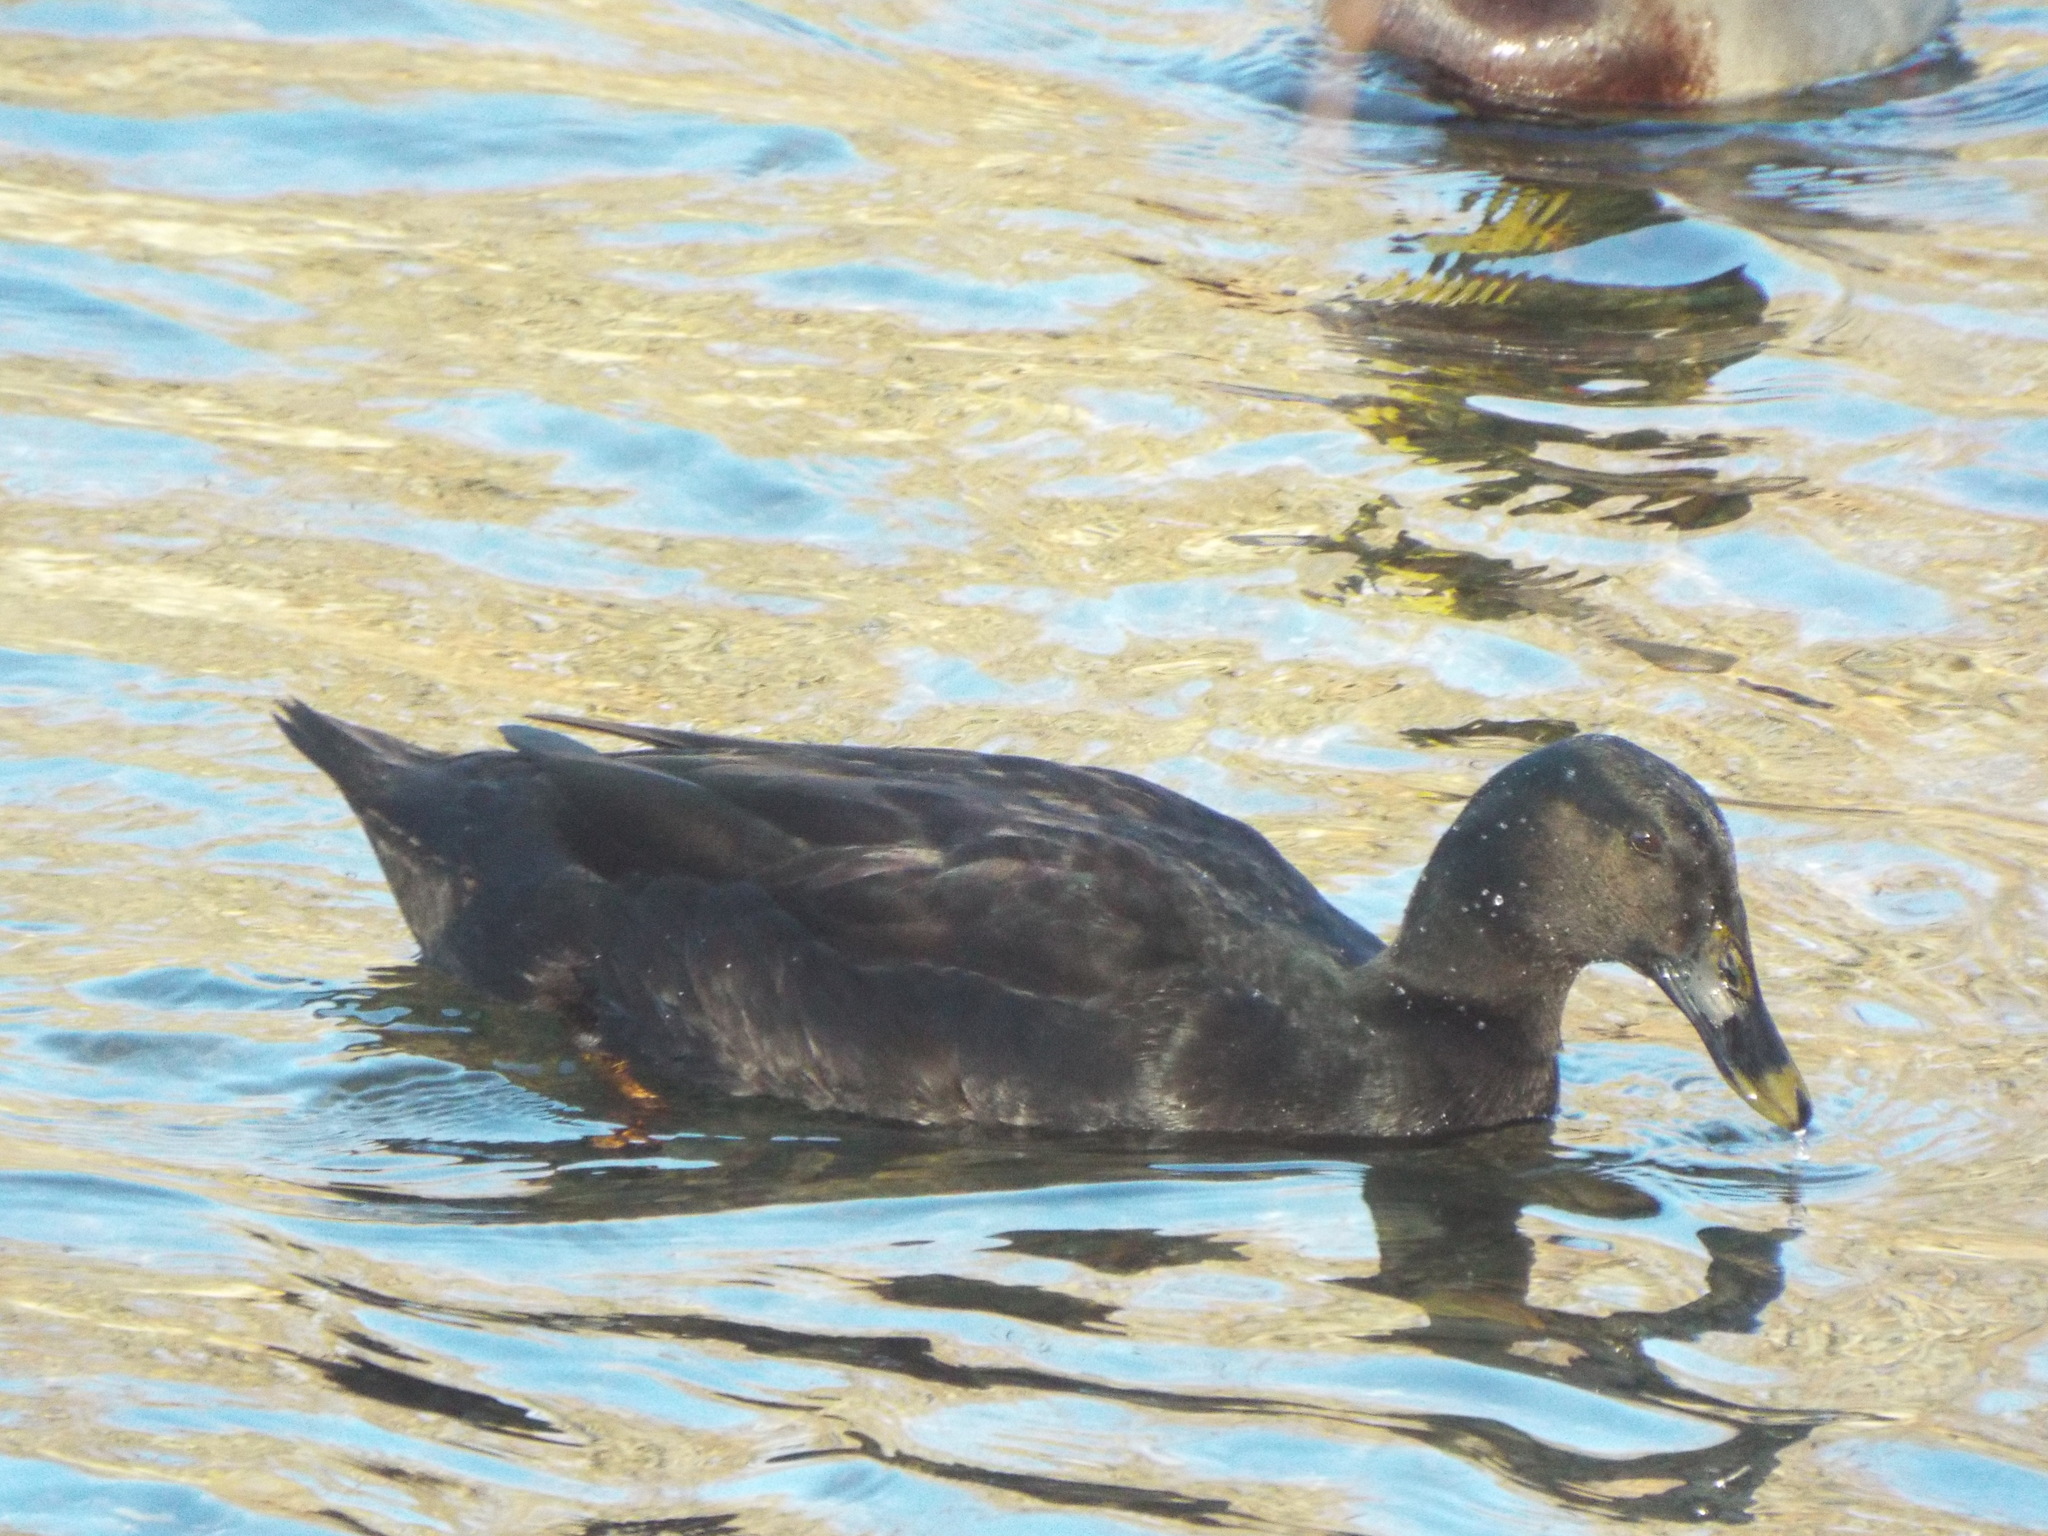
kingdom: Animalia
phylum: Chordata
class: Aves
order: Anseriformes
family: Anatidae
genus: Anas
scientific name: Anas platyrhynchos
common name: Mallard
